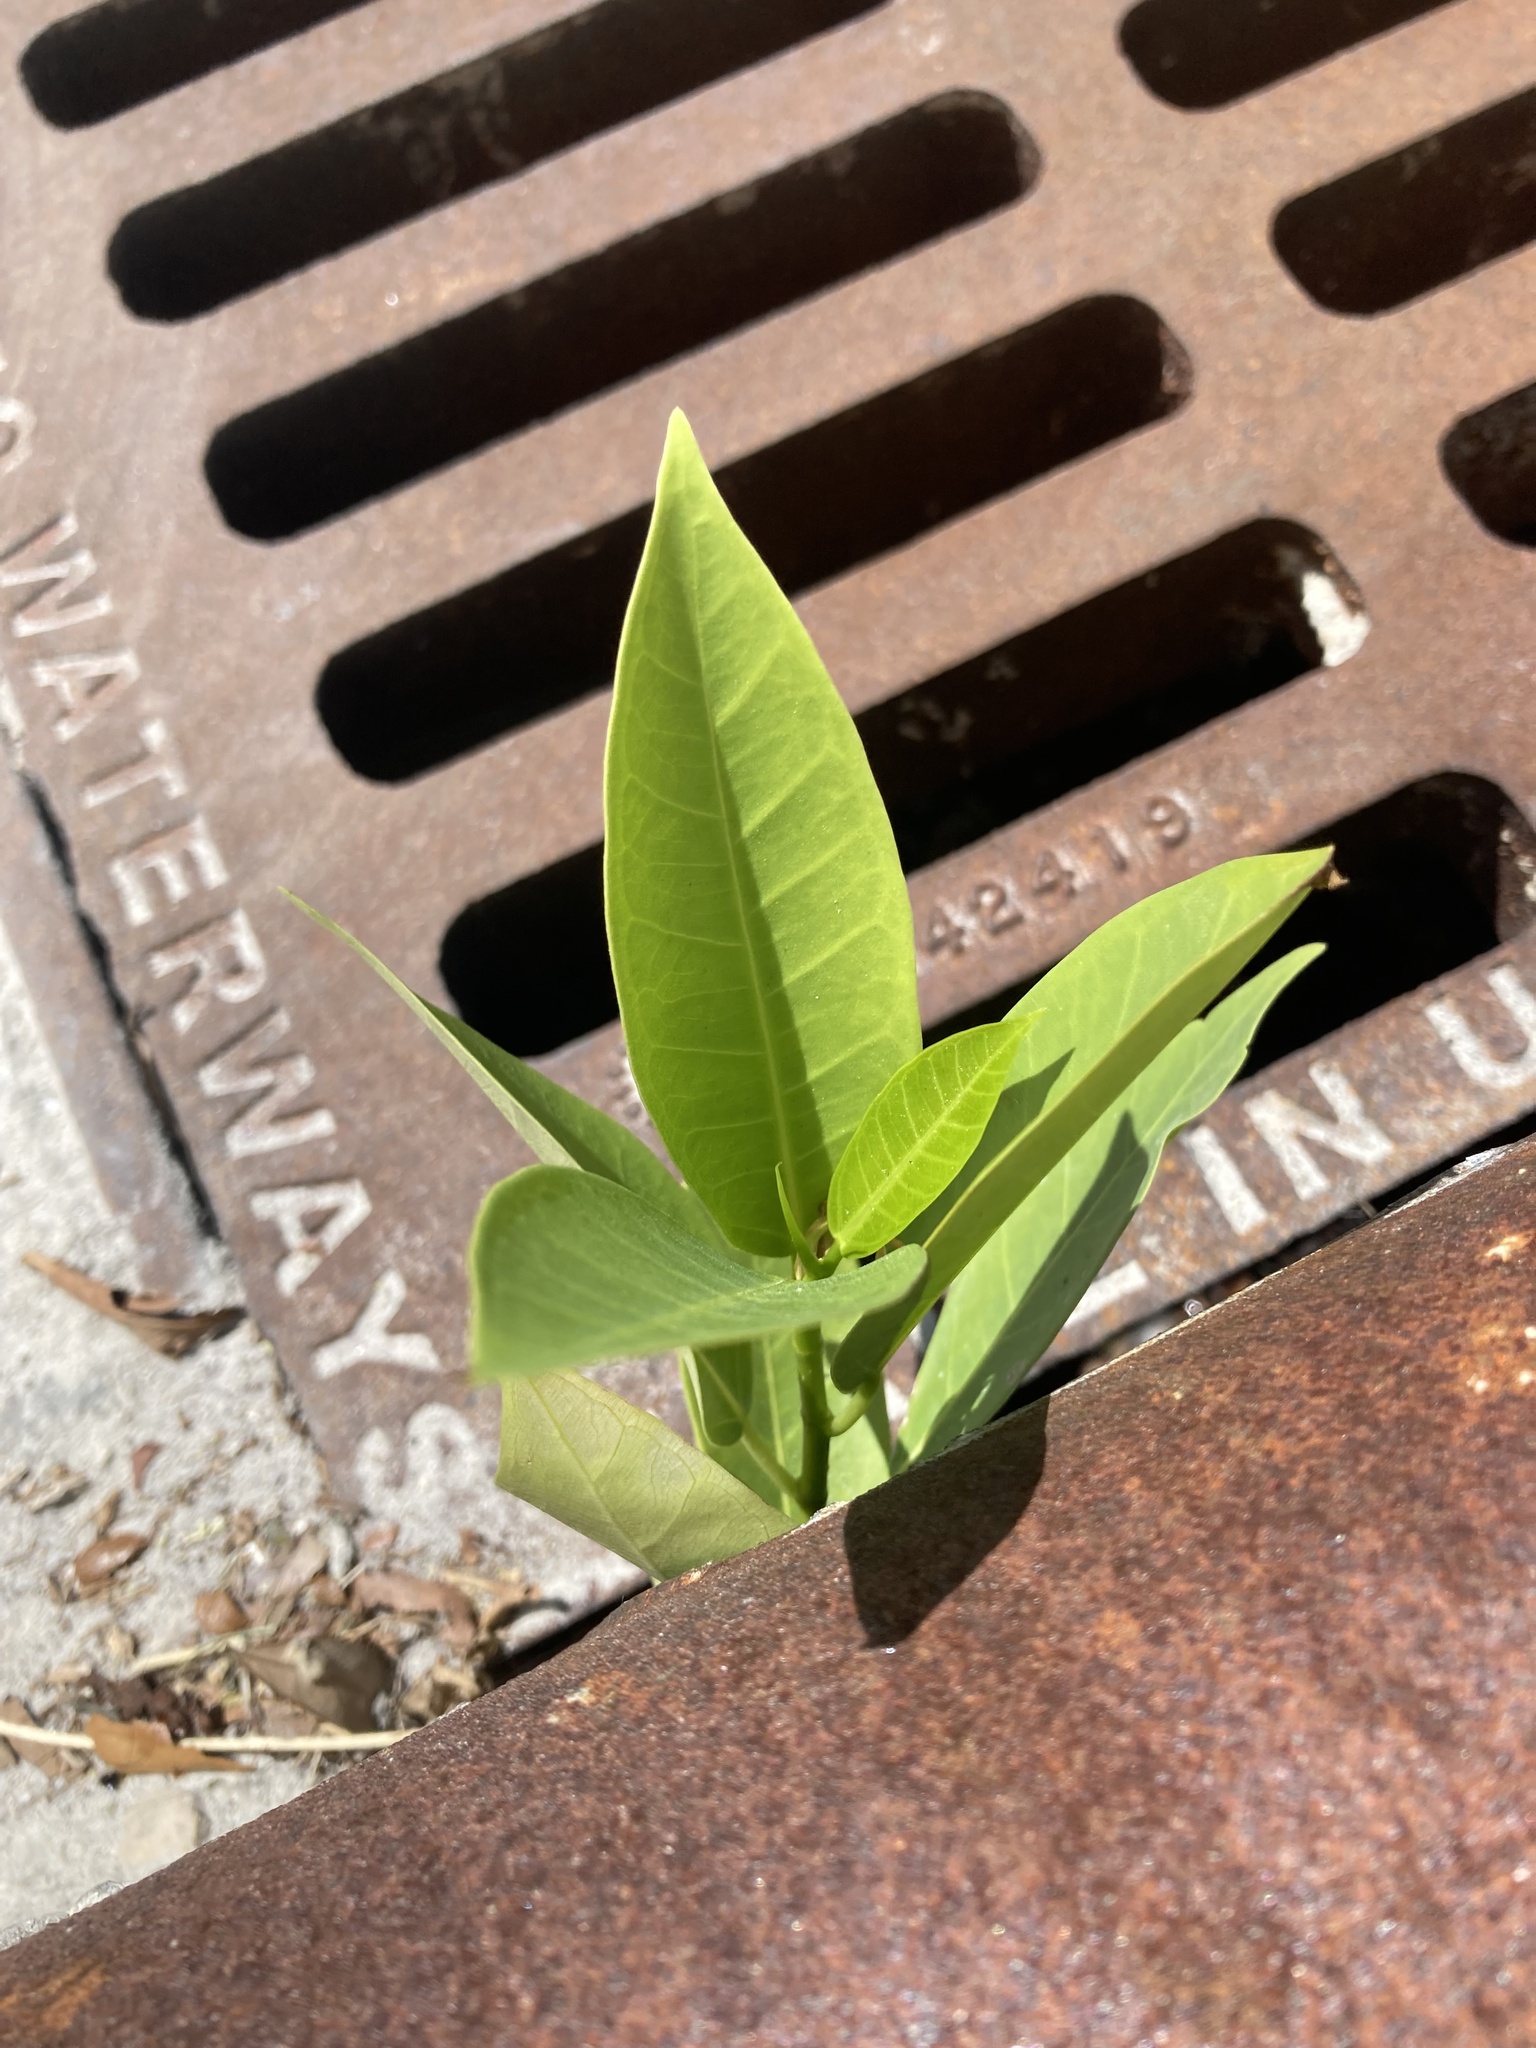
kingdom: Plantae
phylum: Tracheophyta
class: Magnoliopsida
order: Magnoliales
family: Annonaceae
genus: Annona
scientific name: Annona glabra
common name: Monkey apple
